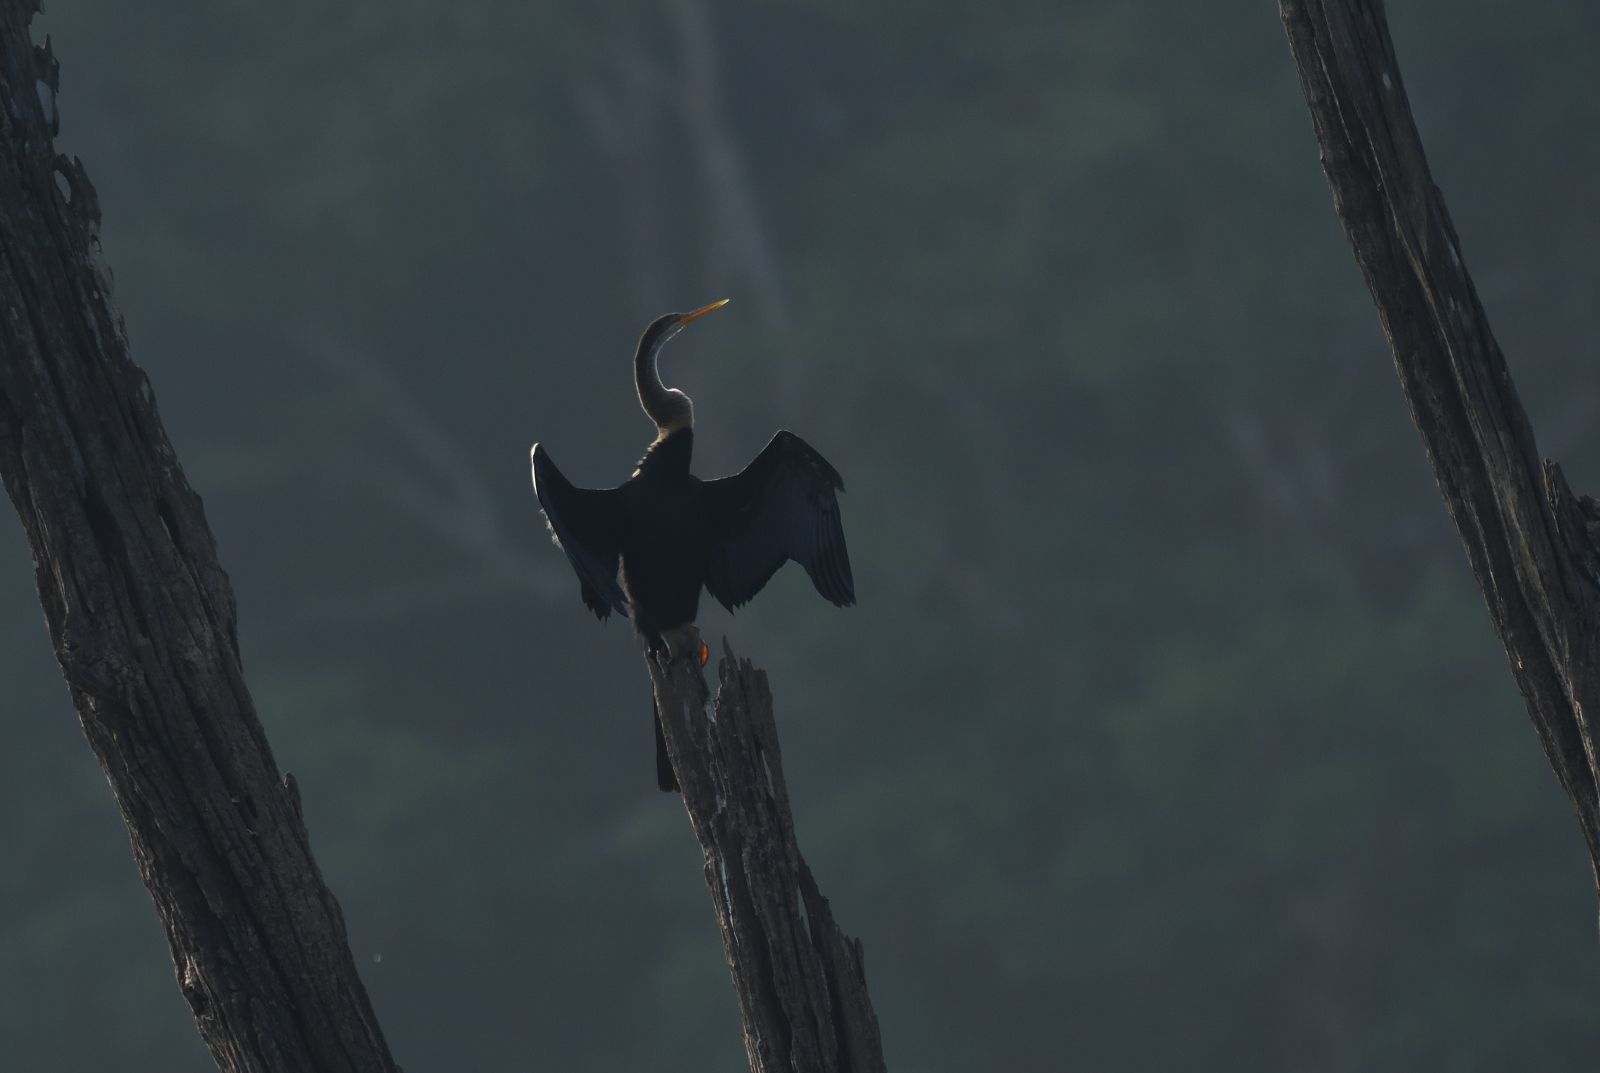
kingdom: Animalia
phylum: Chordata
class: Aves
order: Suliformes
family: Anhingidae
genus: Anhinga
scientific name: Anhinga melanogaster
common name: Oriental darter
